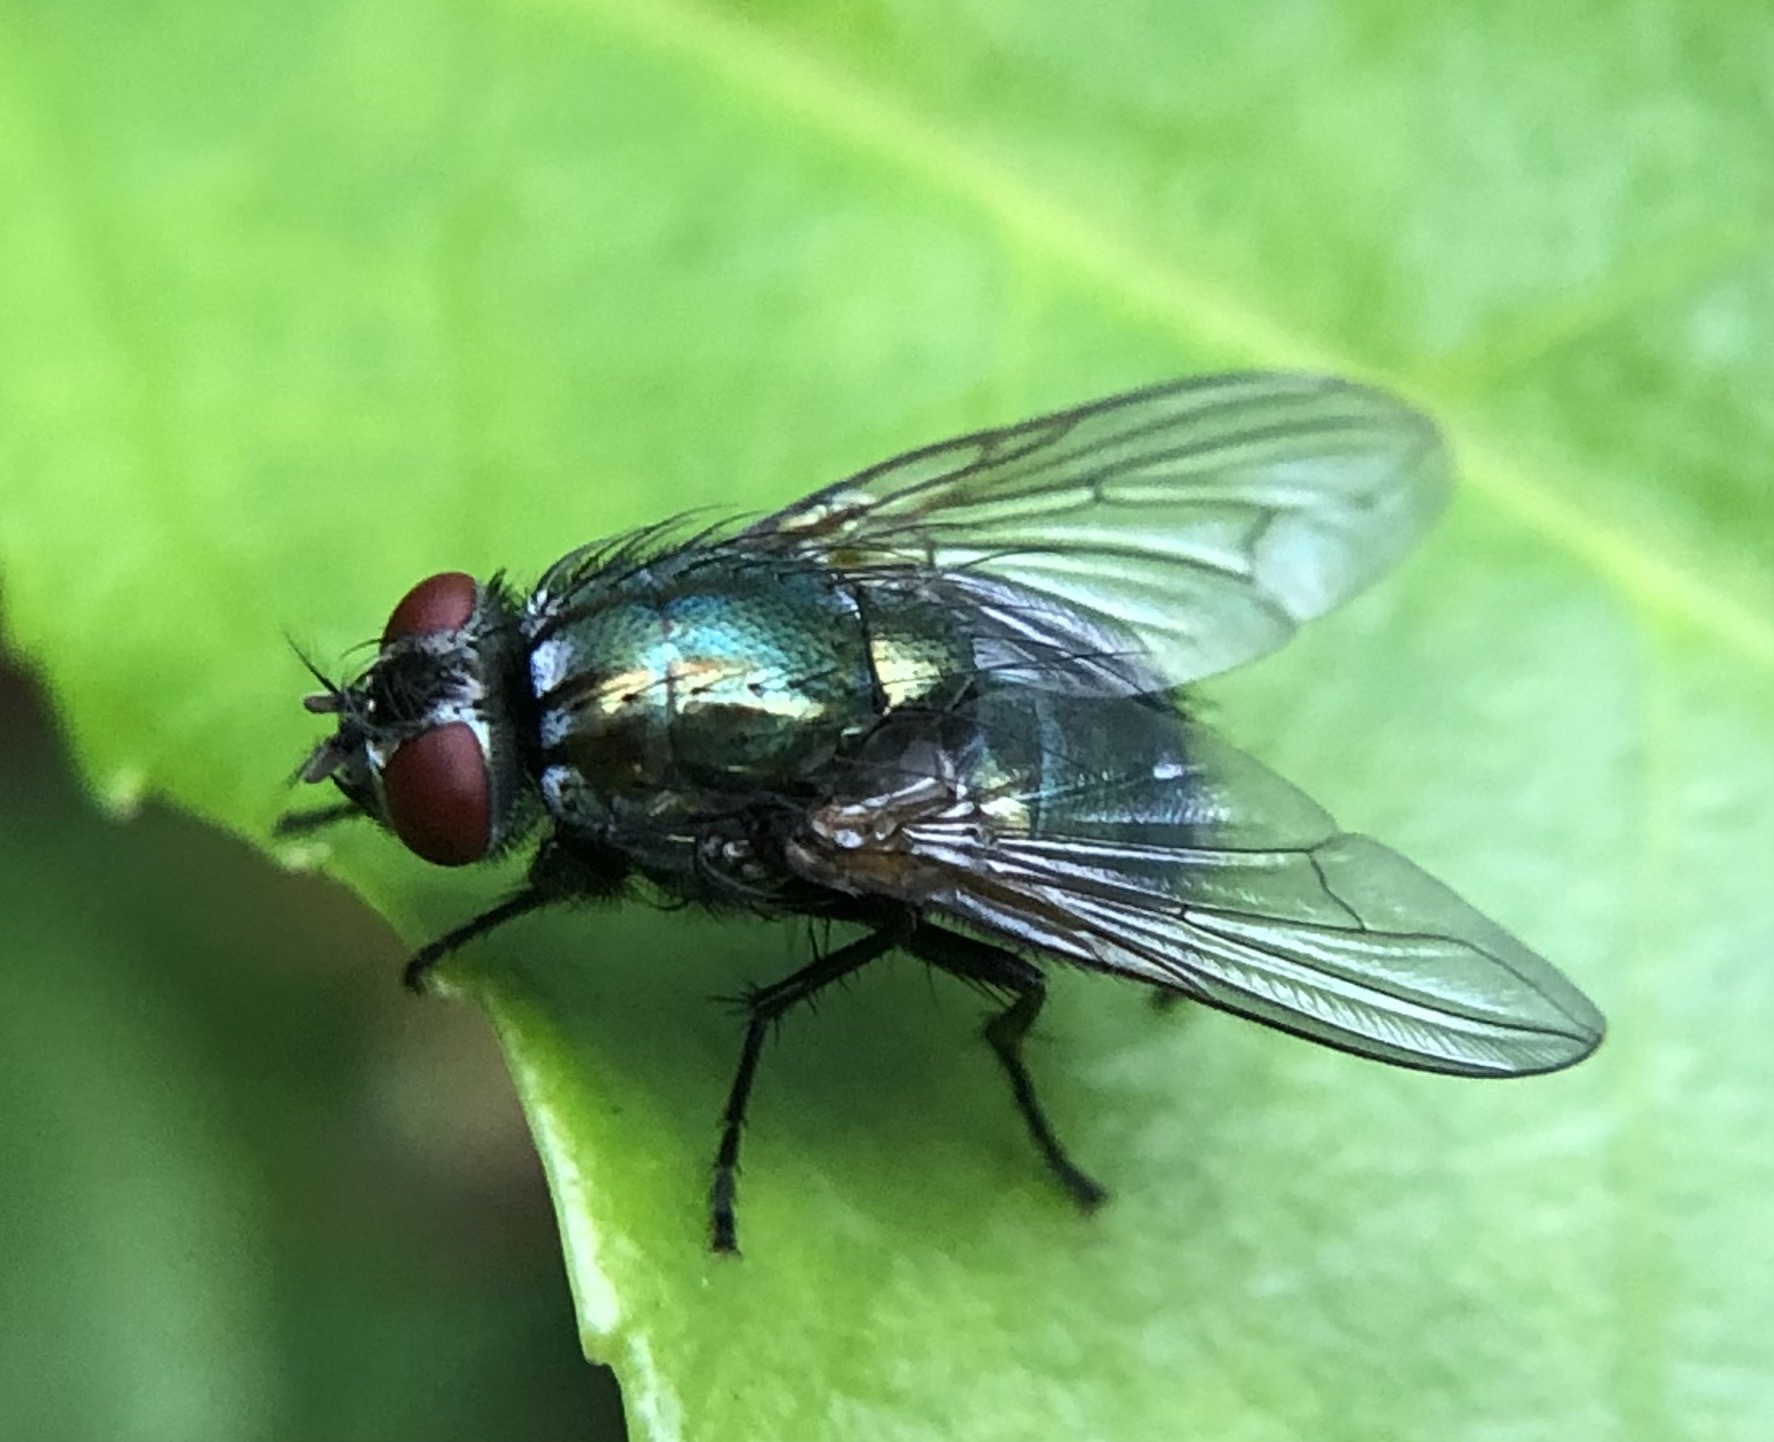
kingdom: Animalia
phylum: Arthropoda
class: Insecta
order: Diptera
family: Muscidae
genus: Dasyphora
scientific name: Dasyphora cyanella
